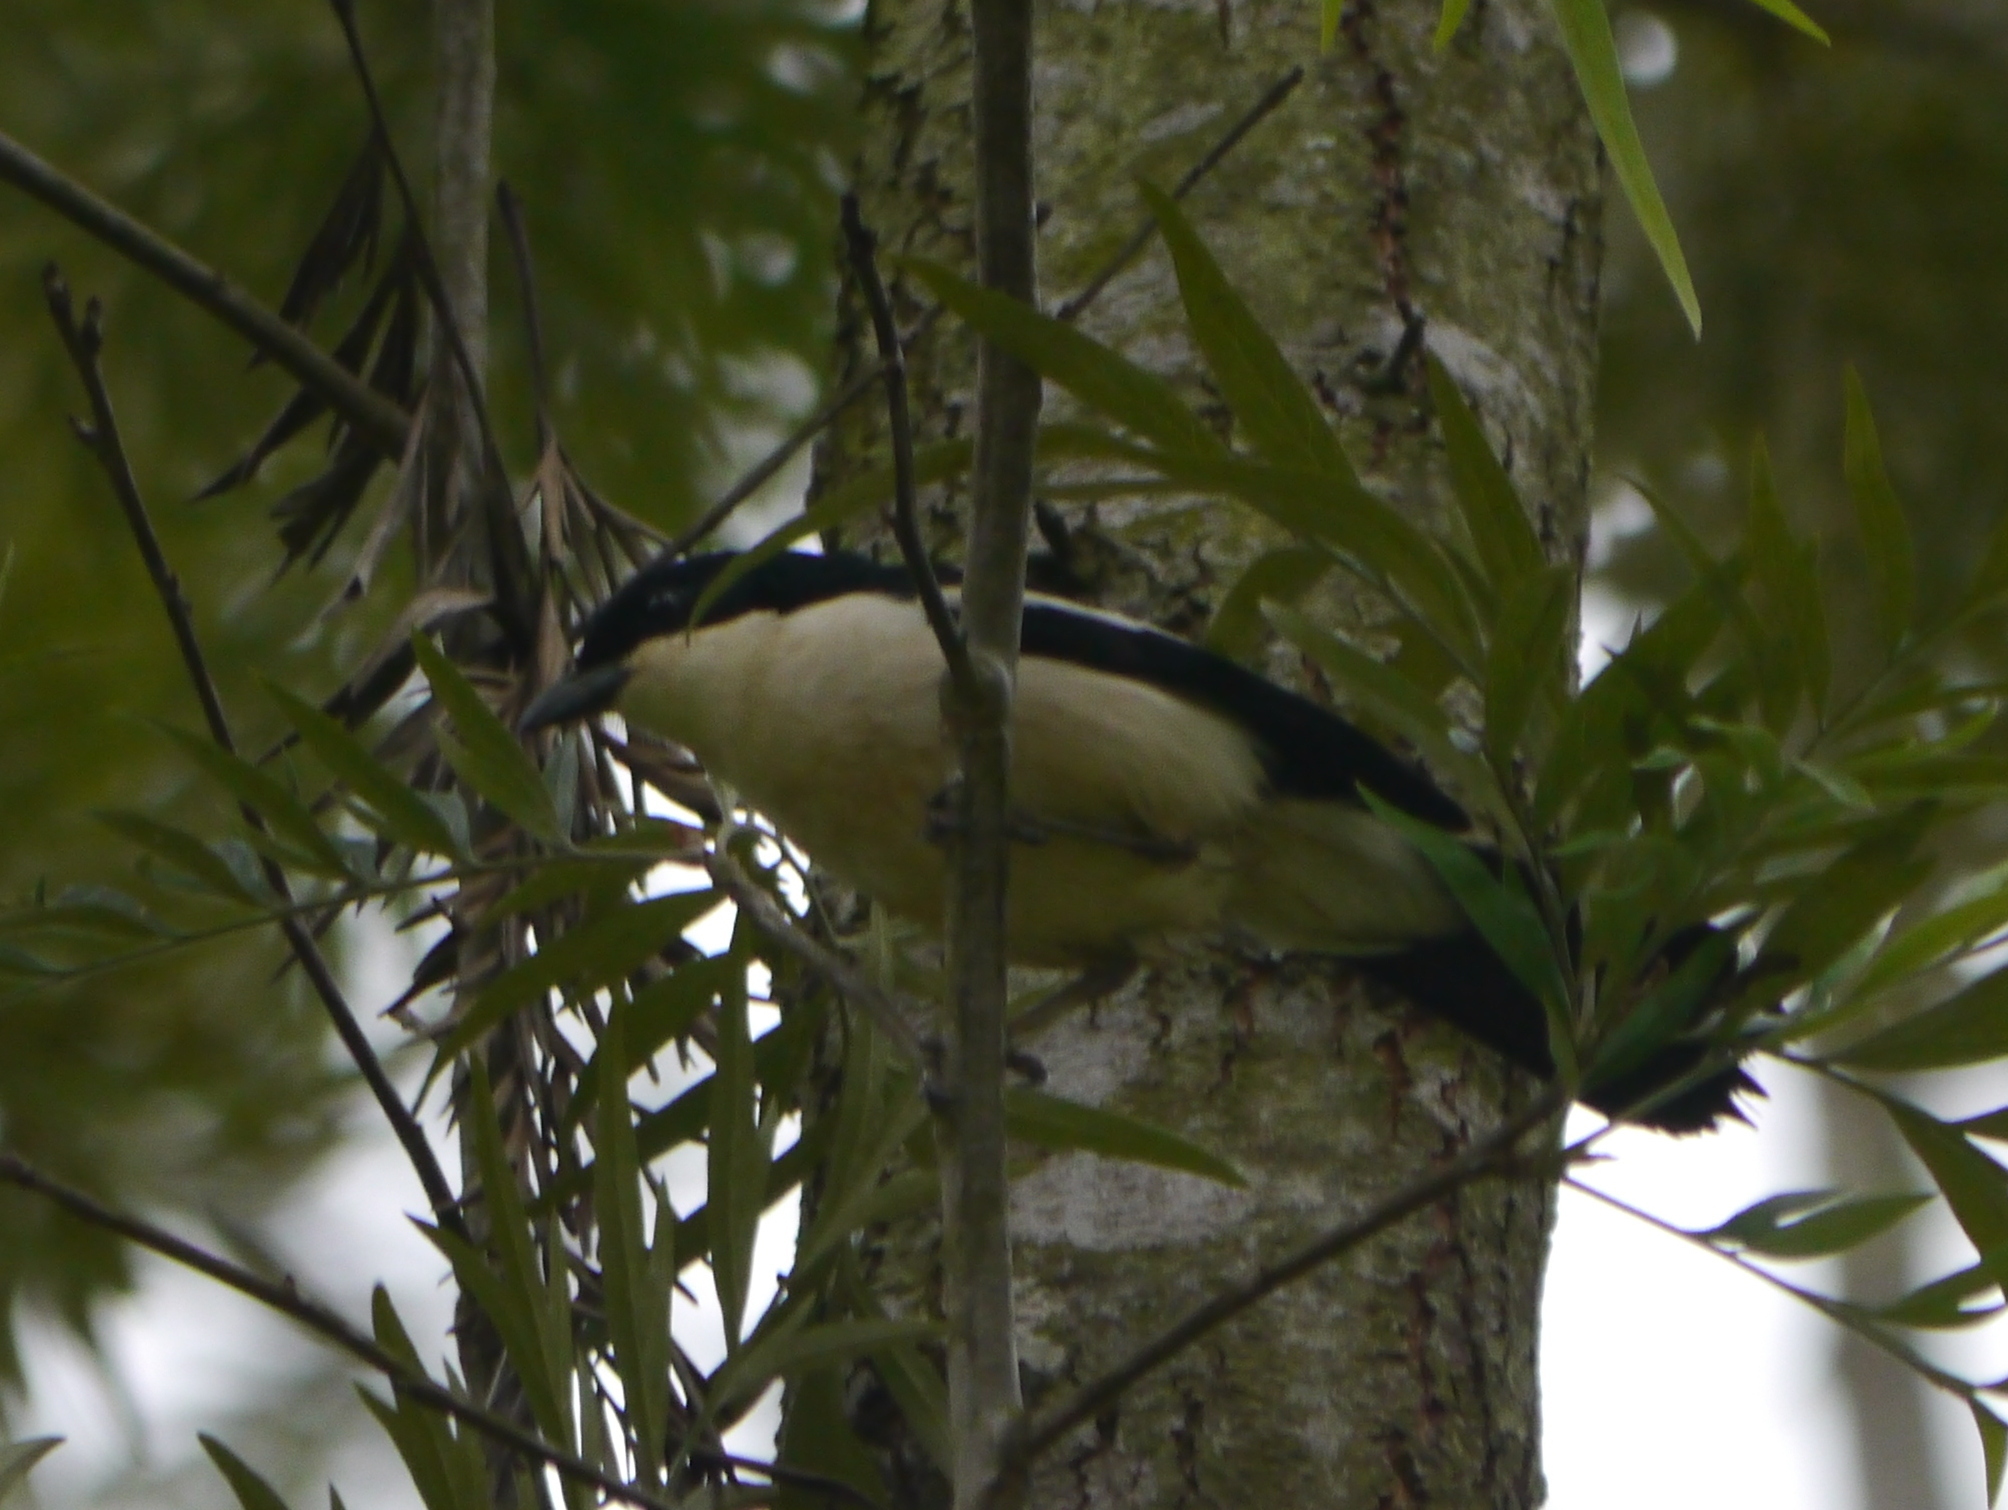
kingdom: Animalia
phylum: Chordata
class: Aves
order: Passeriformes
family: Malaconotidae
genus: Laniarius
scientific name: Laniarius major
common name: Tropical boubou
